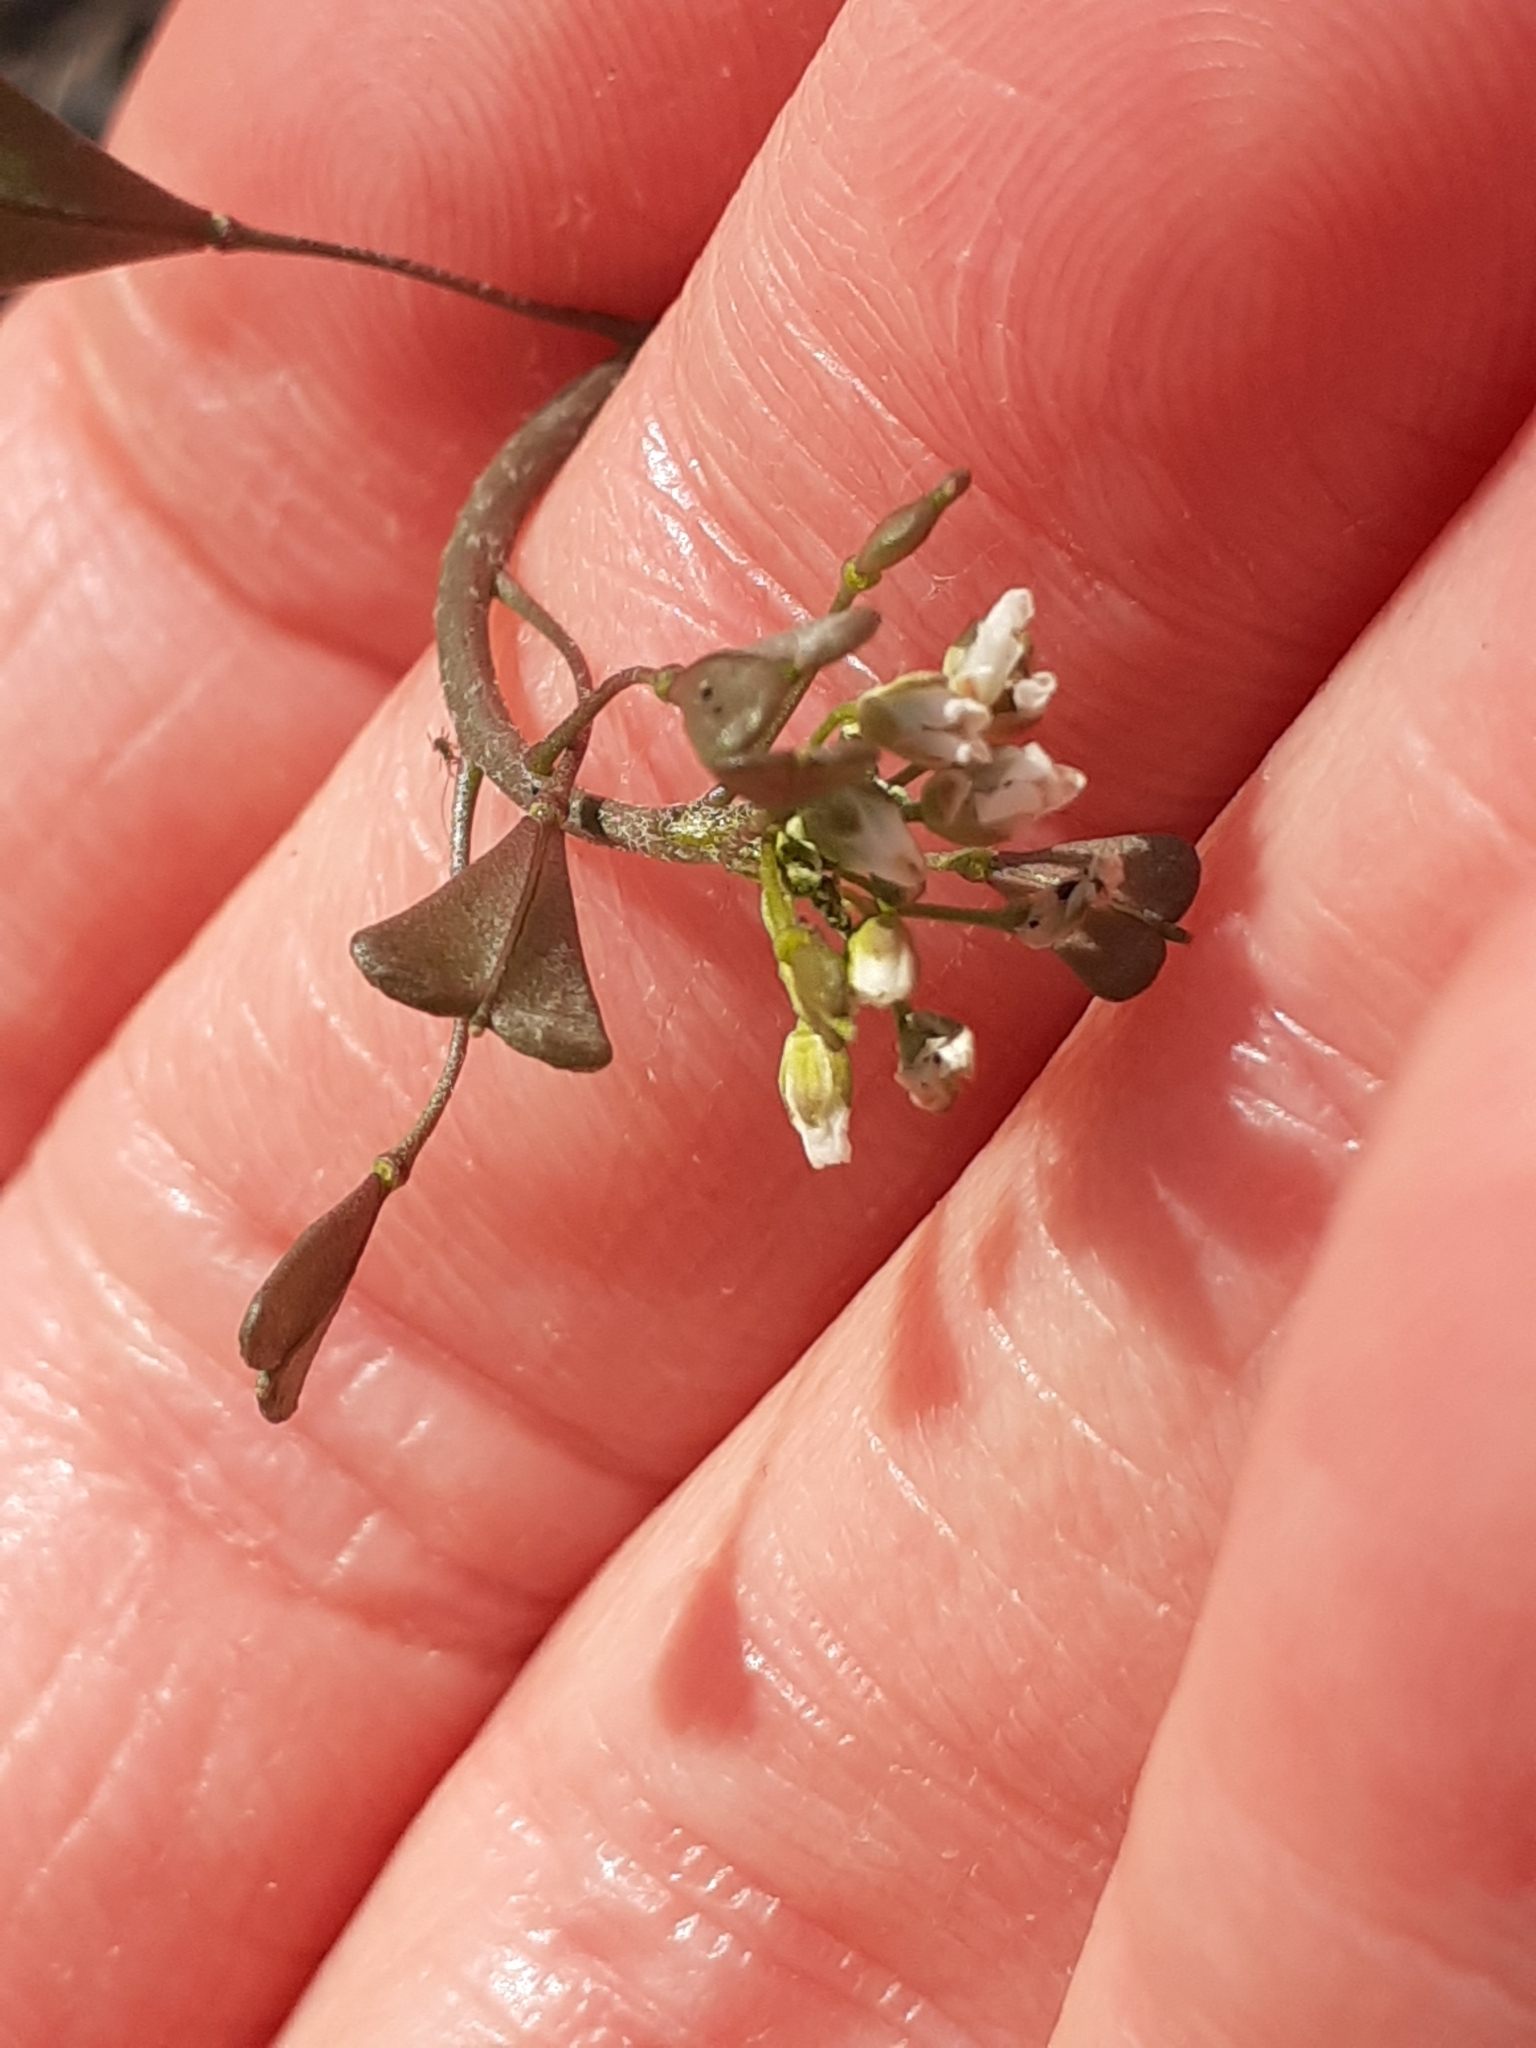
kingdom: Plantae
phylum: Tracheophyta
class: Magnoliopsida
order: Brassicales
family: Brassicaceae
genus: Capsella
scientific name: Capsella bursa-pastoris
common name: Shepherd's purse
